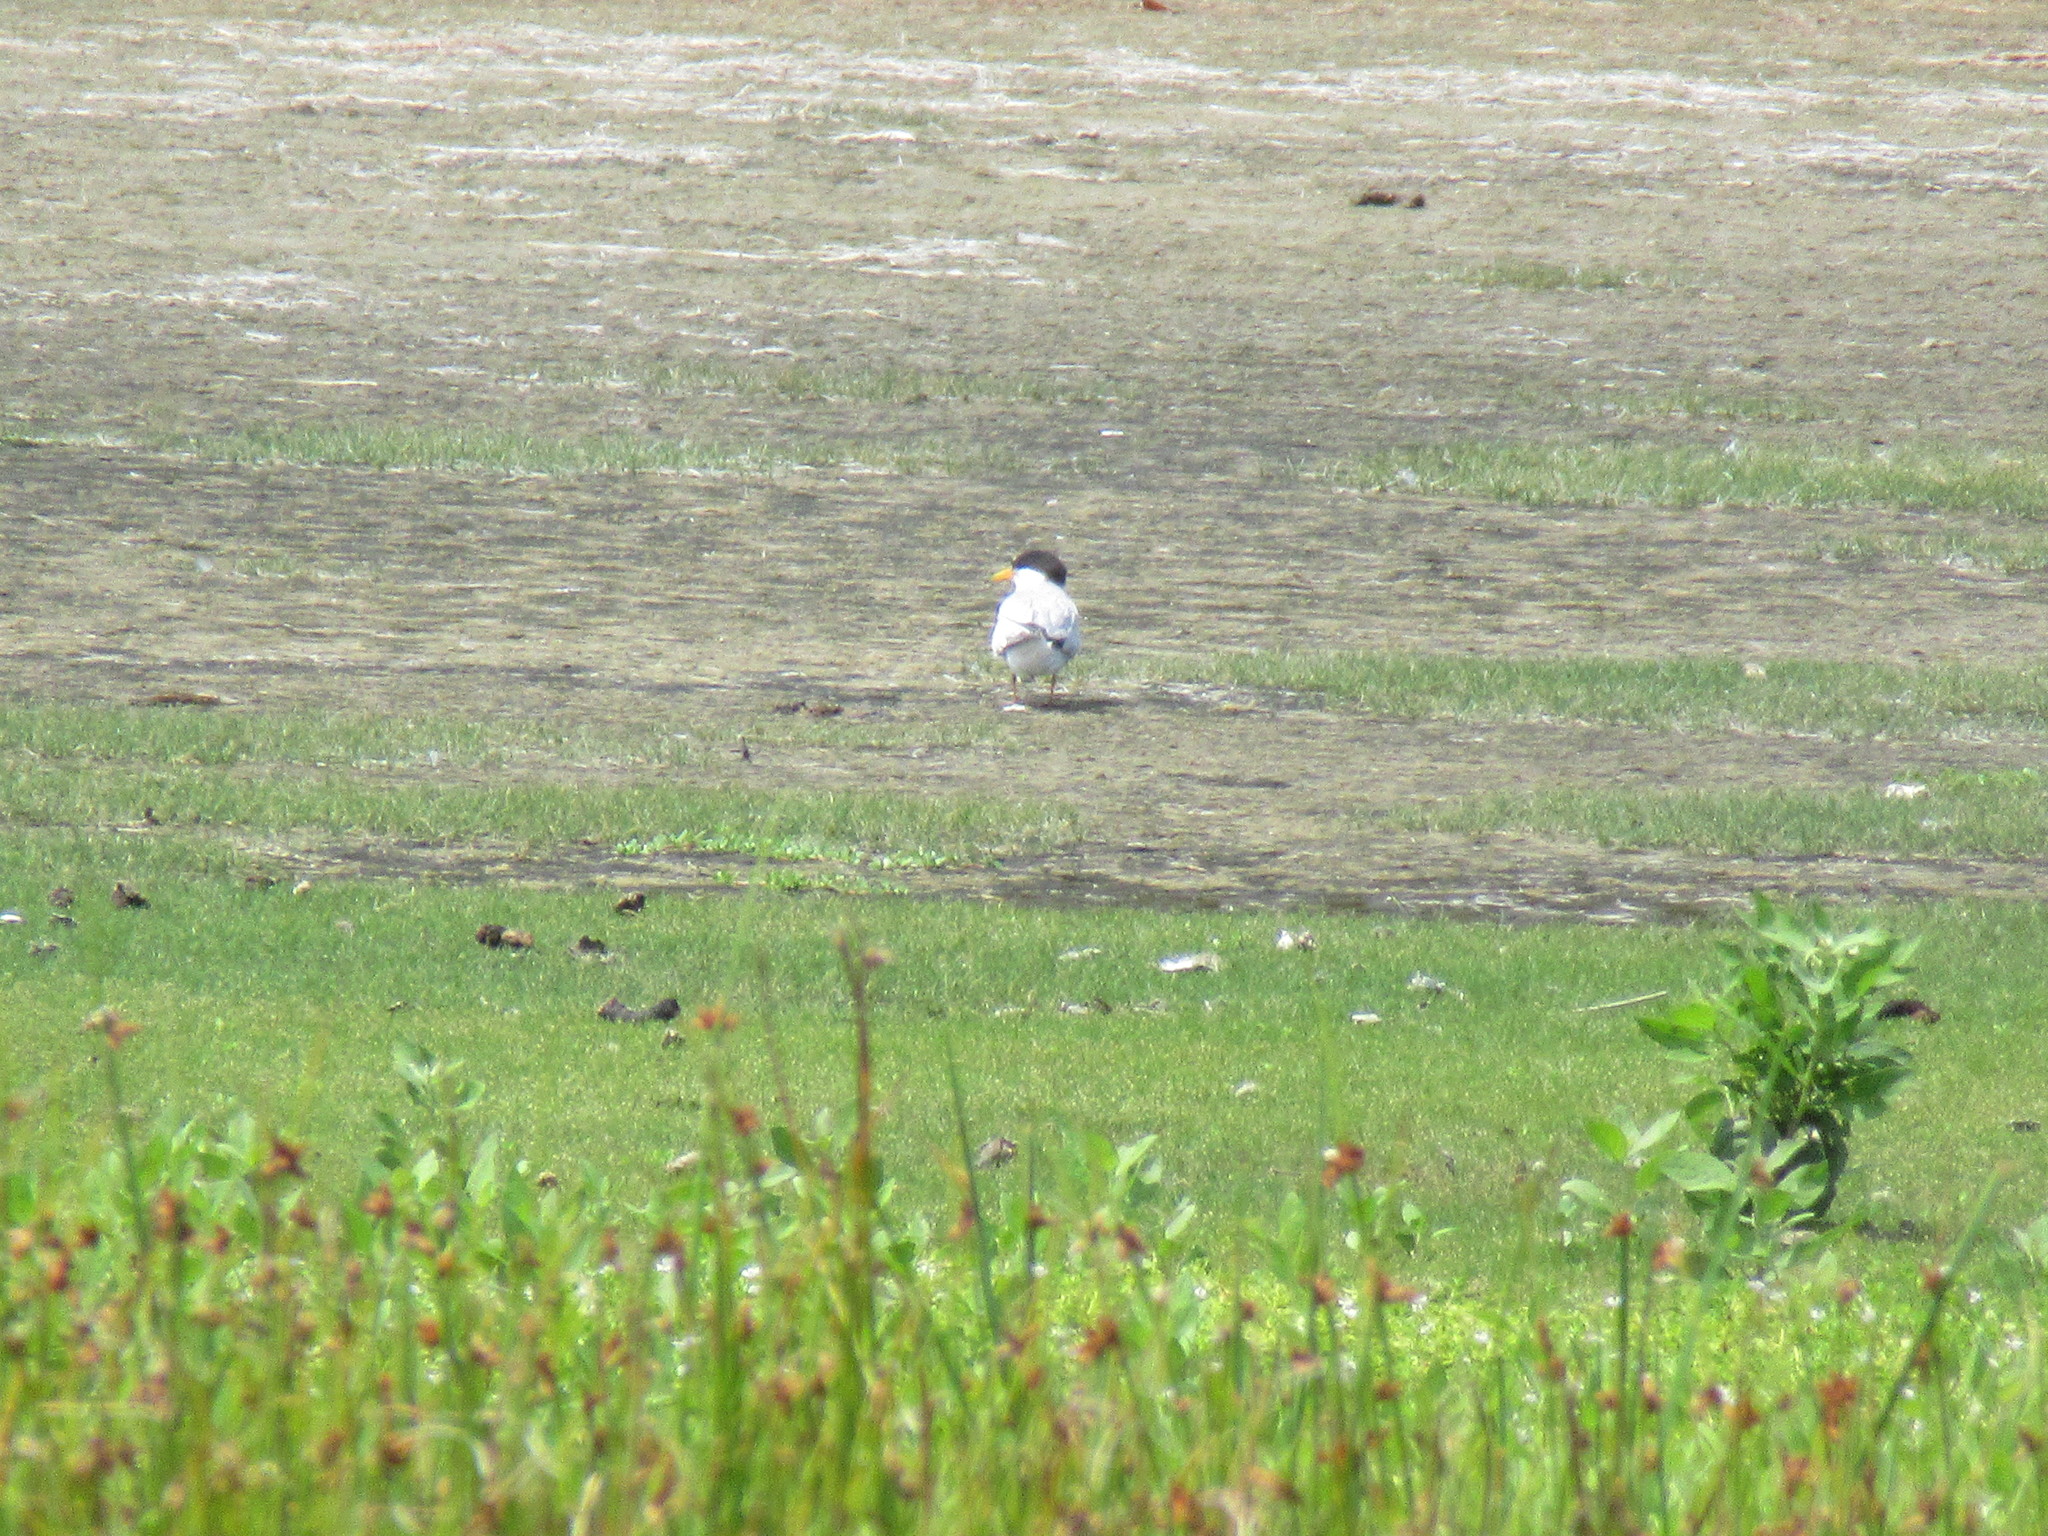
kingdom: Animalia
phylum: Chordata
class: Aves
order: Charadriiformes
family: Laridae
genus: Sternula
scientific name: Sternula antillarum
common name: Least tern
